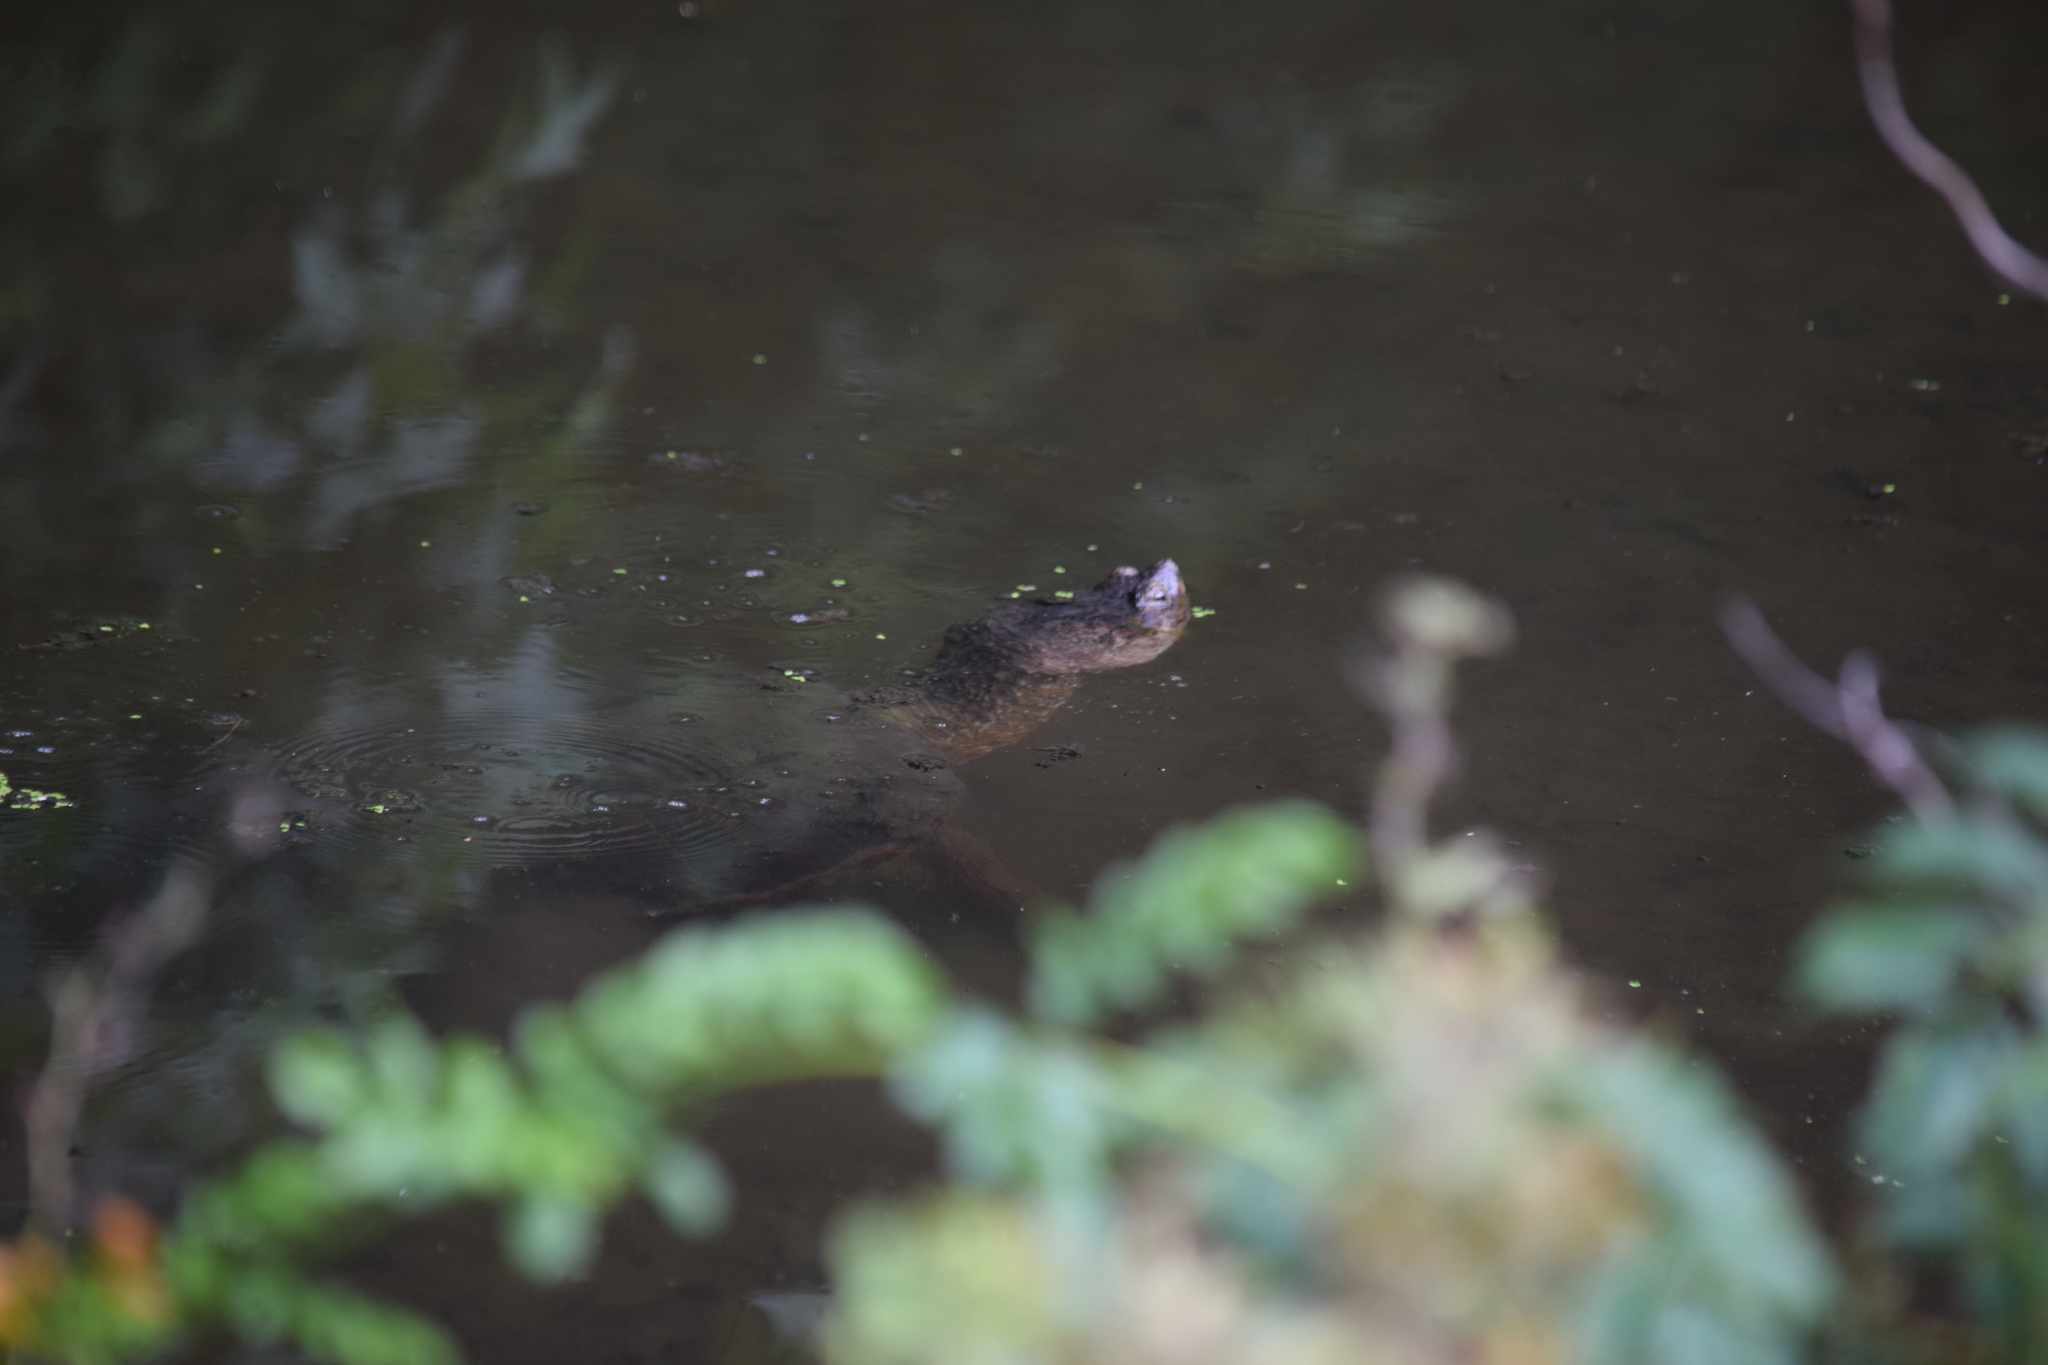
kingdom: Animalia
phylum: Chordata
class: Testudines
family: Chelydridae
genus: Chelydra
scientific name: Chelydra serpentina
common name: Common snapping turtle
